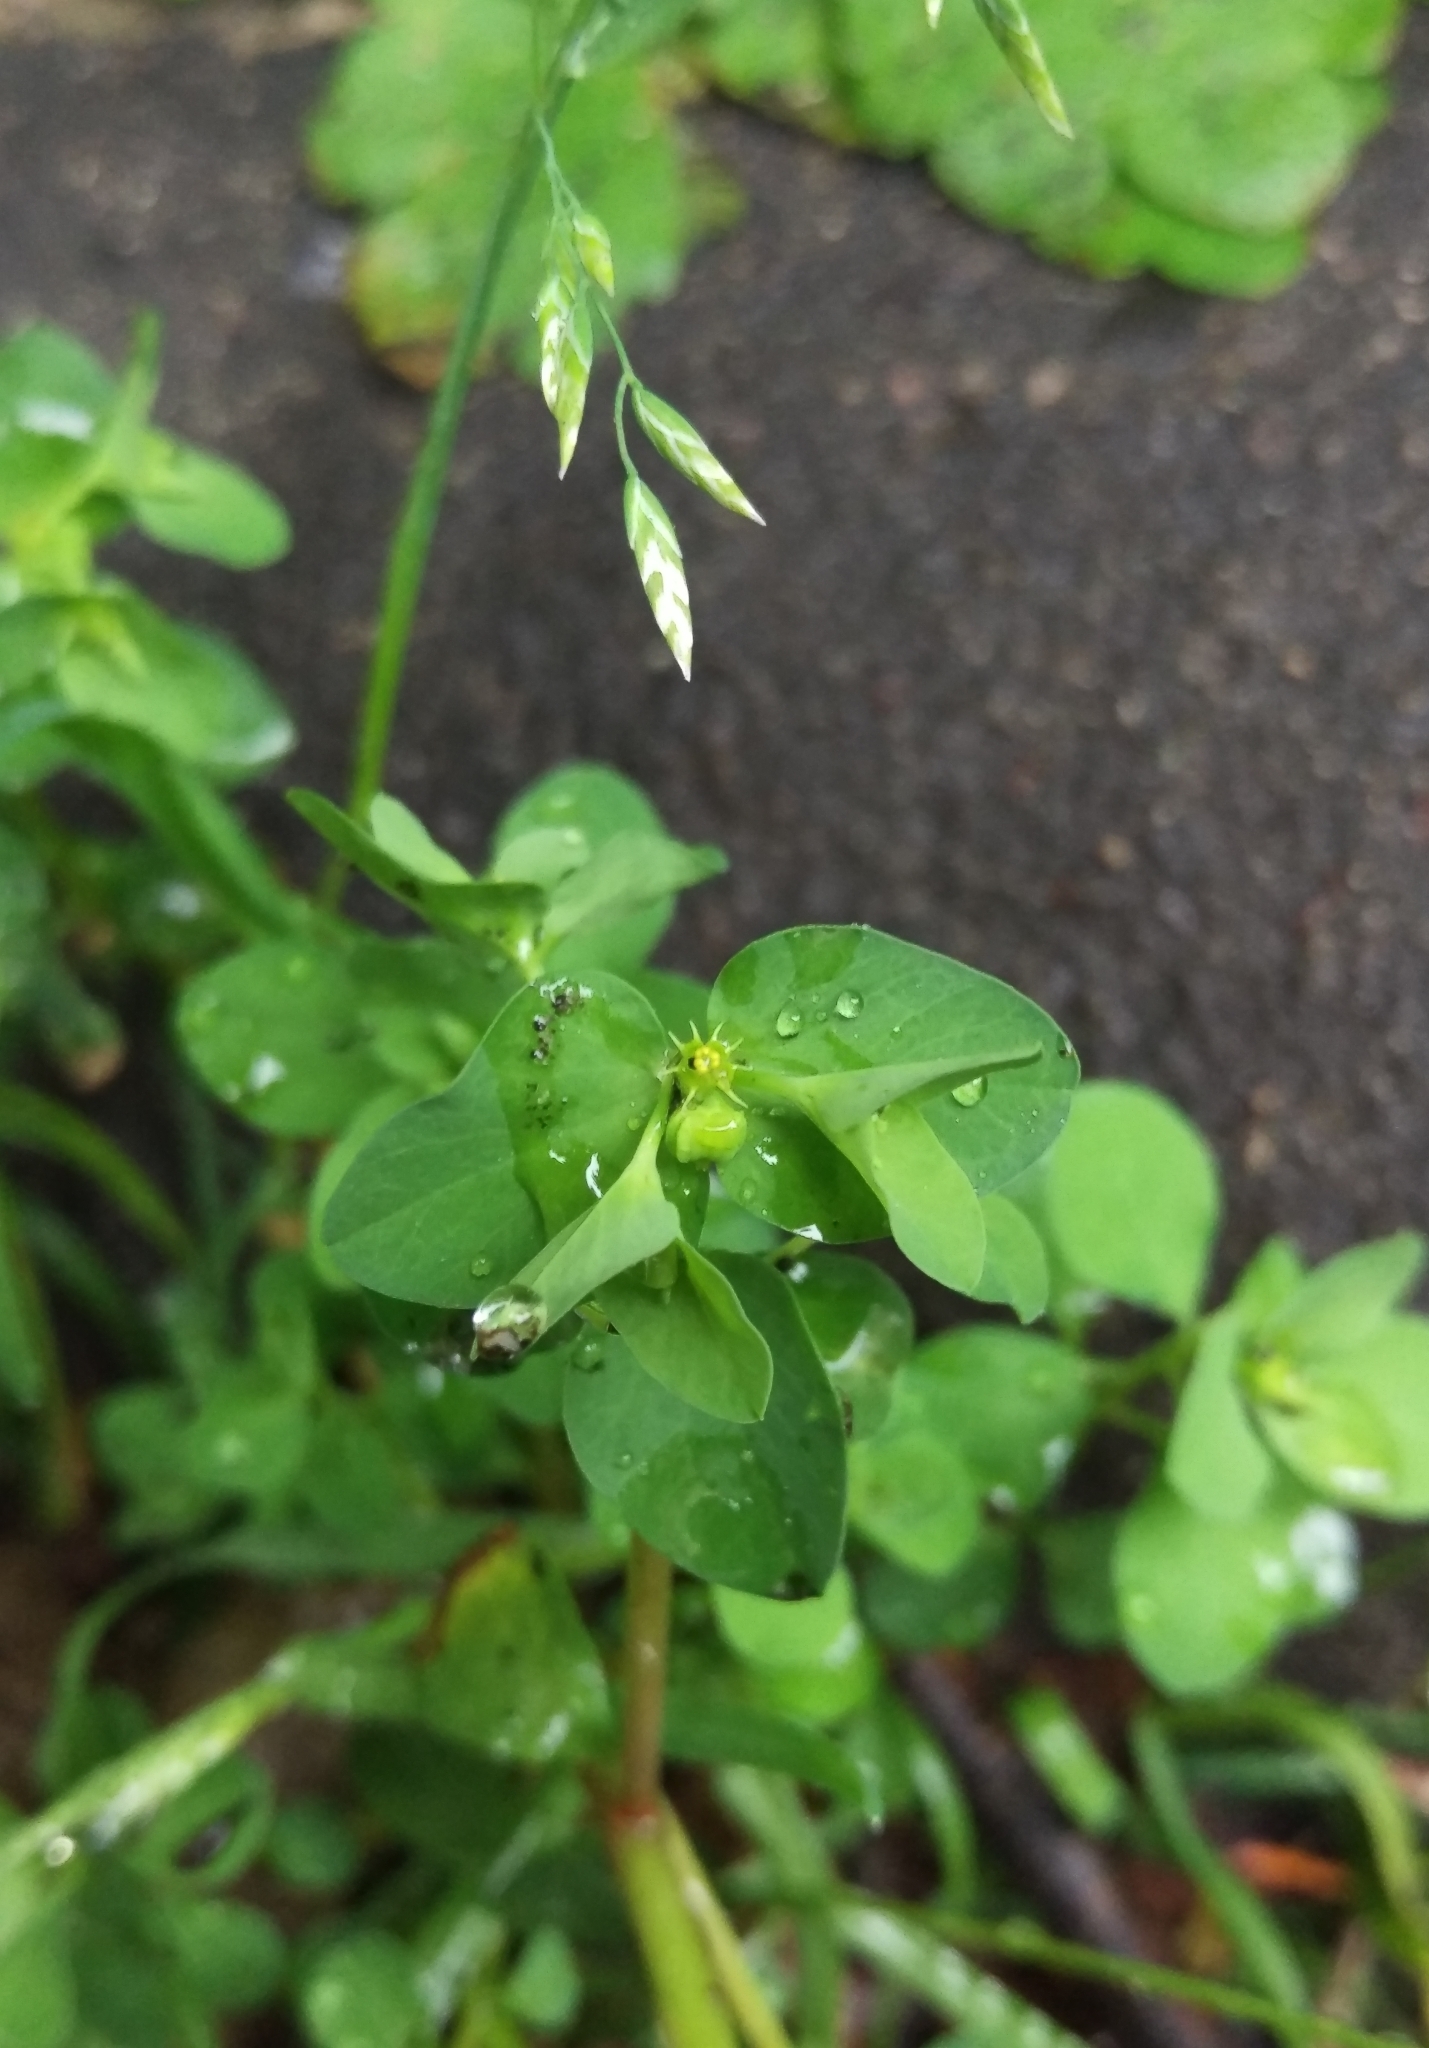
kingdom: Plantae
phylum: Tracheophyta
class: Magnoliopsida
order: Malpighiales
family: Euphorbiaceae
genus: Euphorbia
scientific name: Euphorbia peplus
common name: Petty spurge
